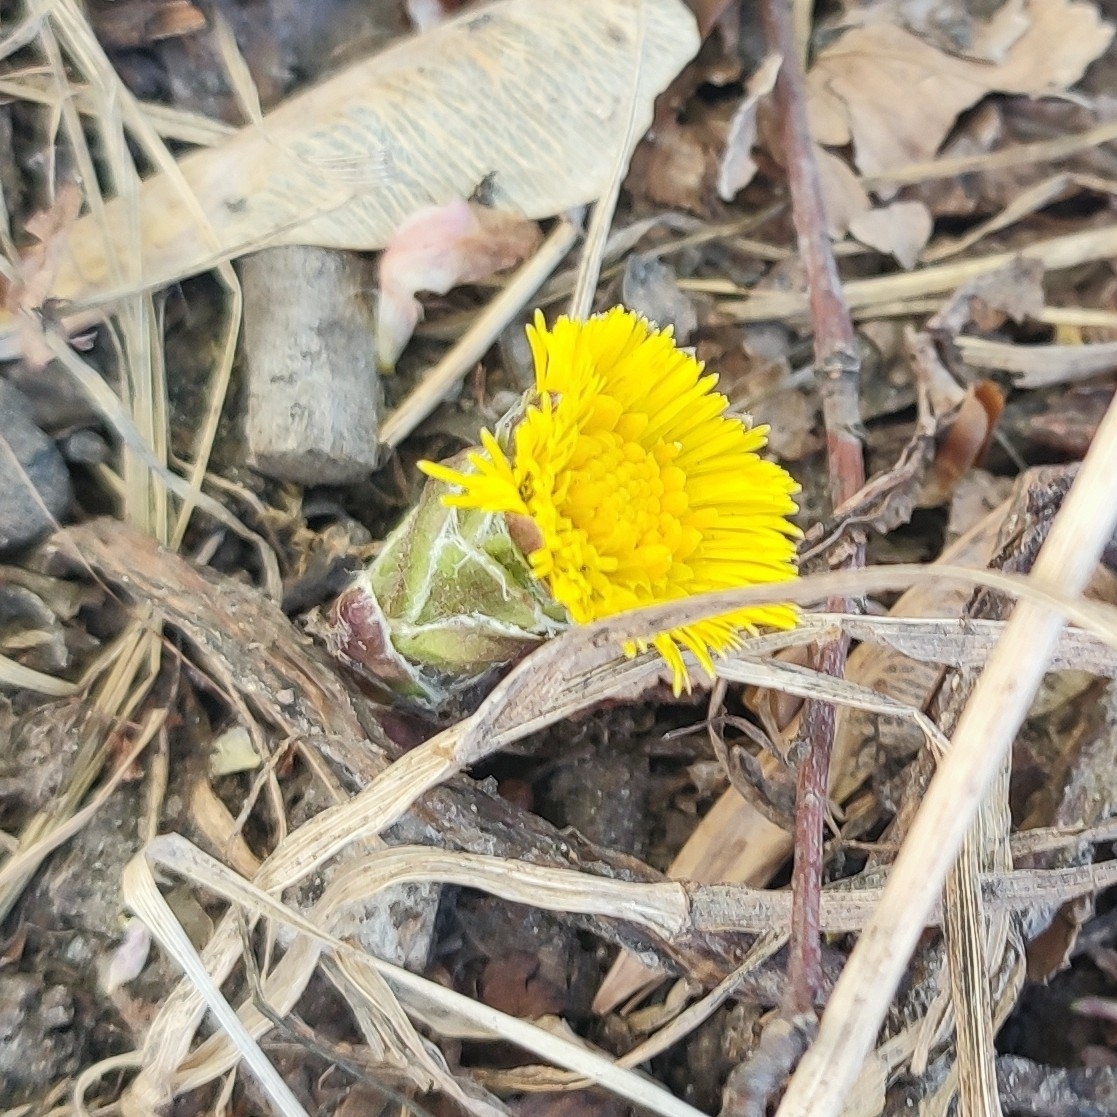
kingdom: Plantae
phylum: Tracheophyta
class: Magnoliopsida
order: Asterales
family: Asteraceae
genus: Tussilago
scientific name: Tussilago farfara
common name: Coltsfoot
